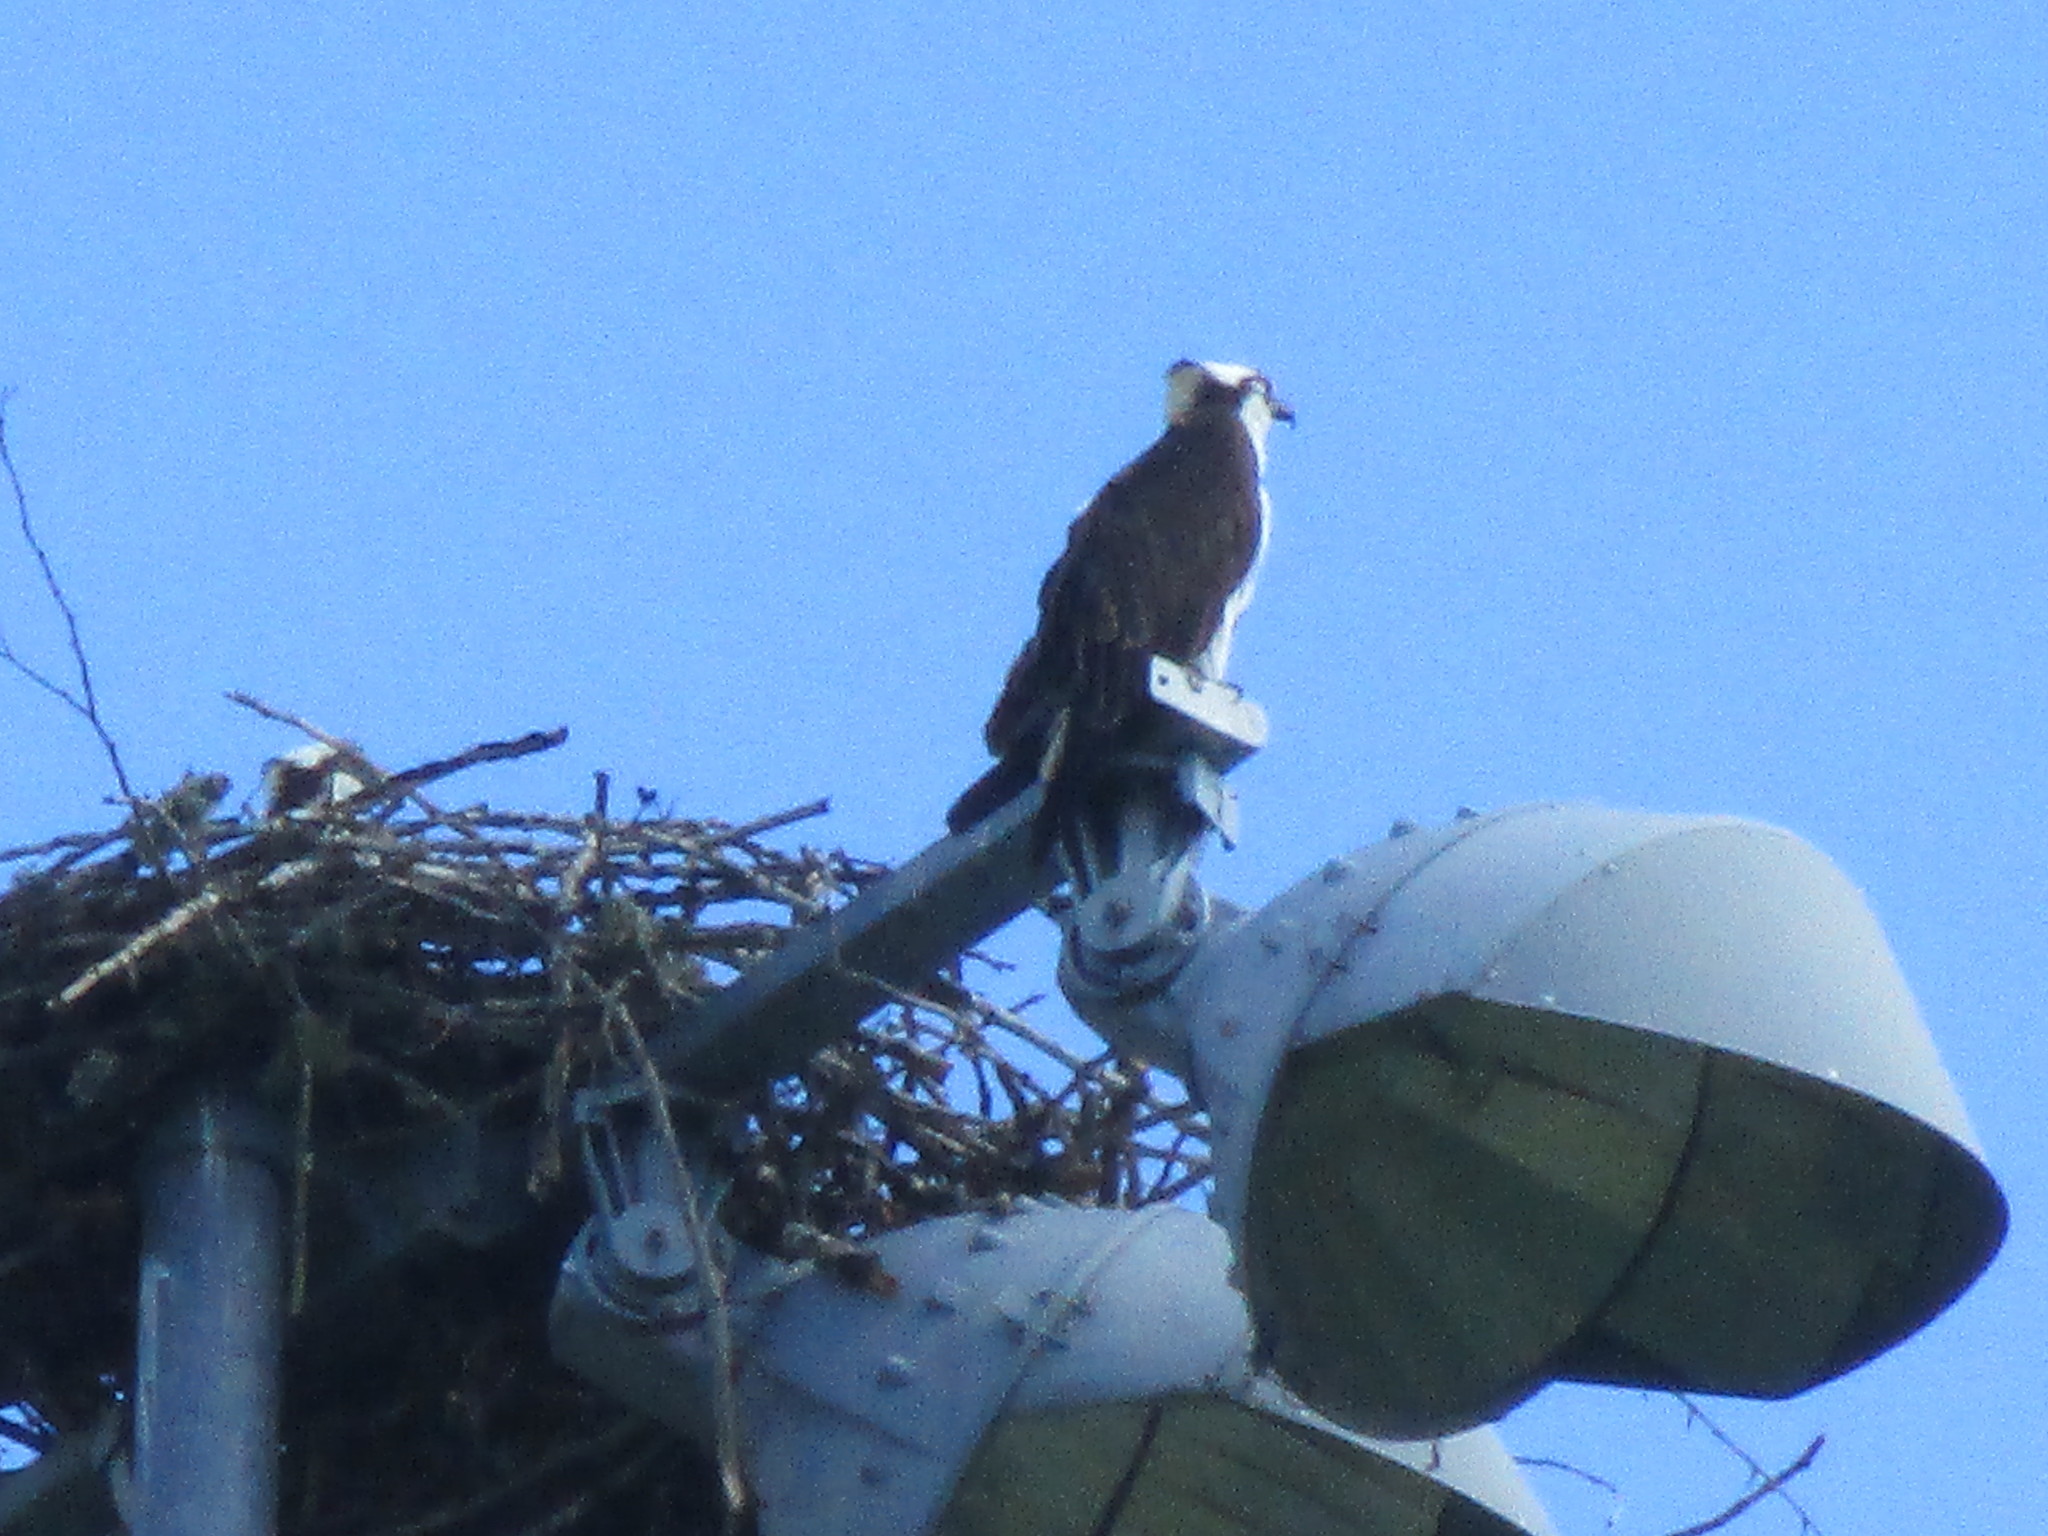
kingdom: Animalia
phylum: Chordata
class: Aves
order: Accipitriformes
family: Pandionidae
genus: Pandion
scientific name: Pandion haliaetus
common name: Osprey
